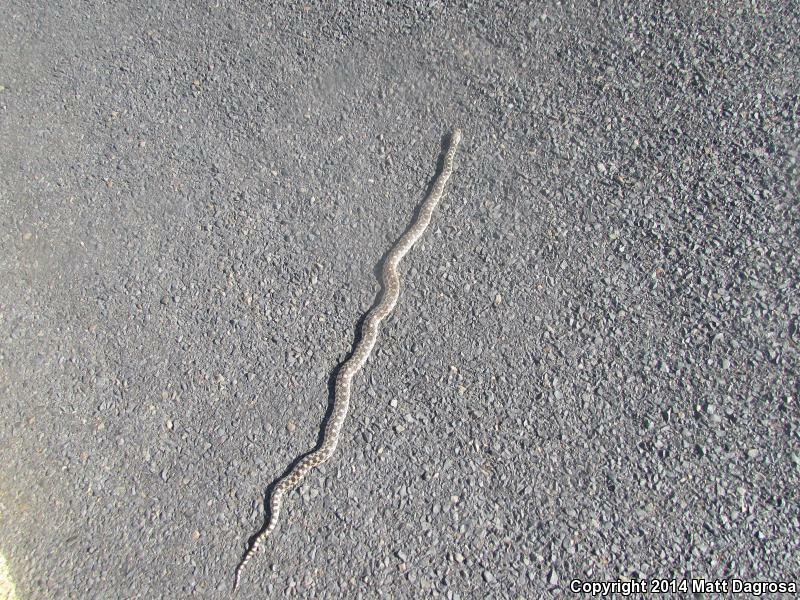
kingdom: Animalia
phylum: Chordata
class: Squamata
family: Colubridae
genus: Pituophis
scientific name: Pituophis catenifer
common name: Gopher snake
